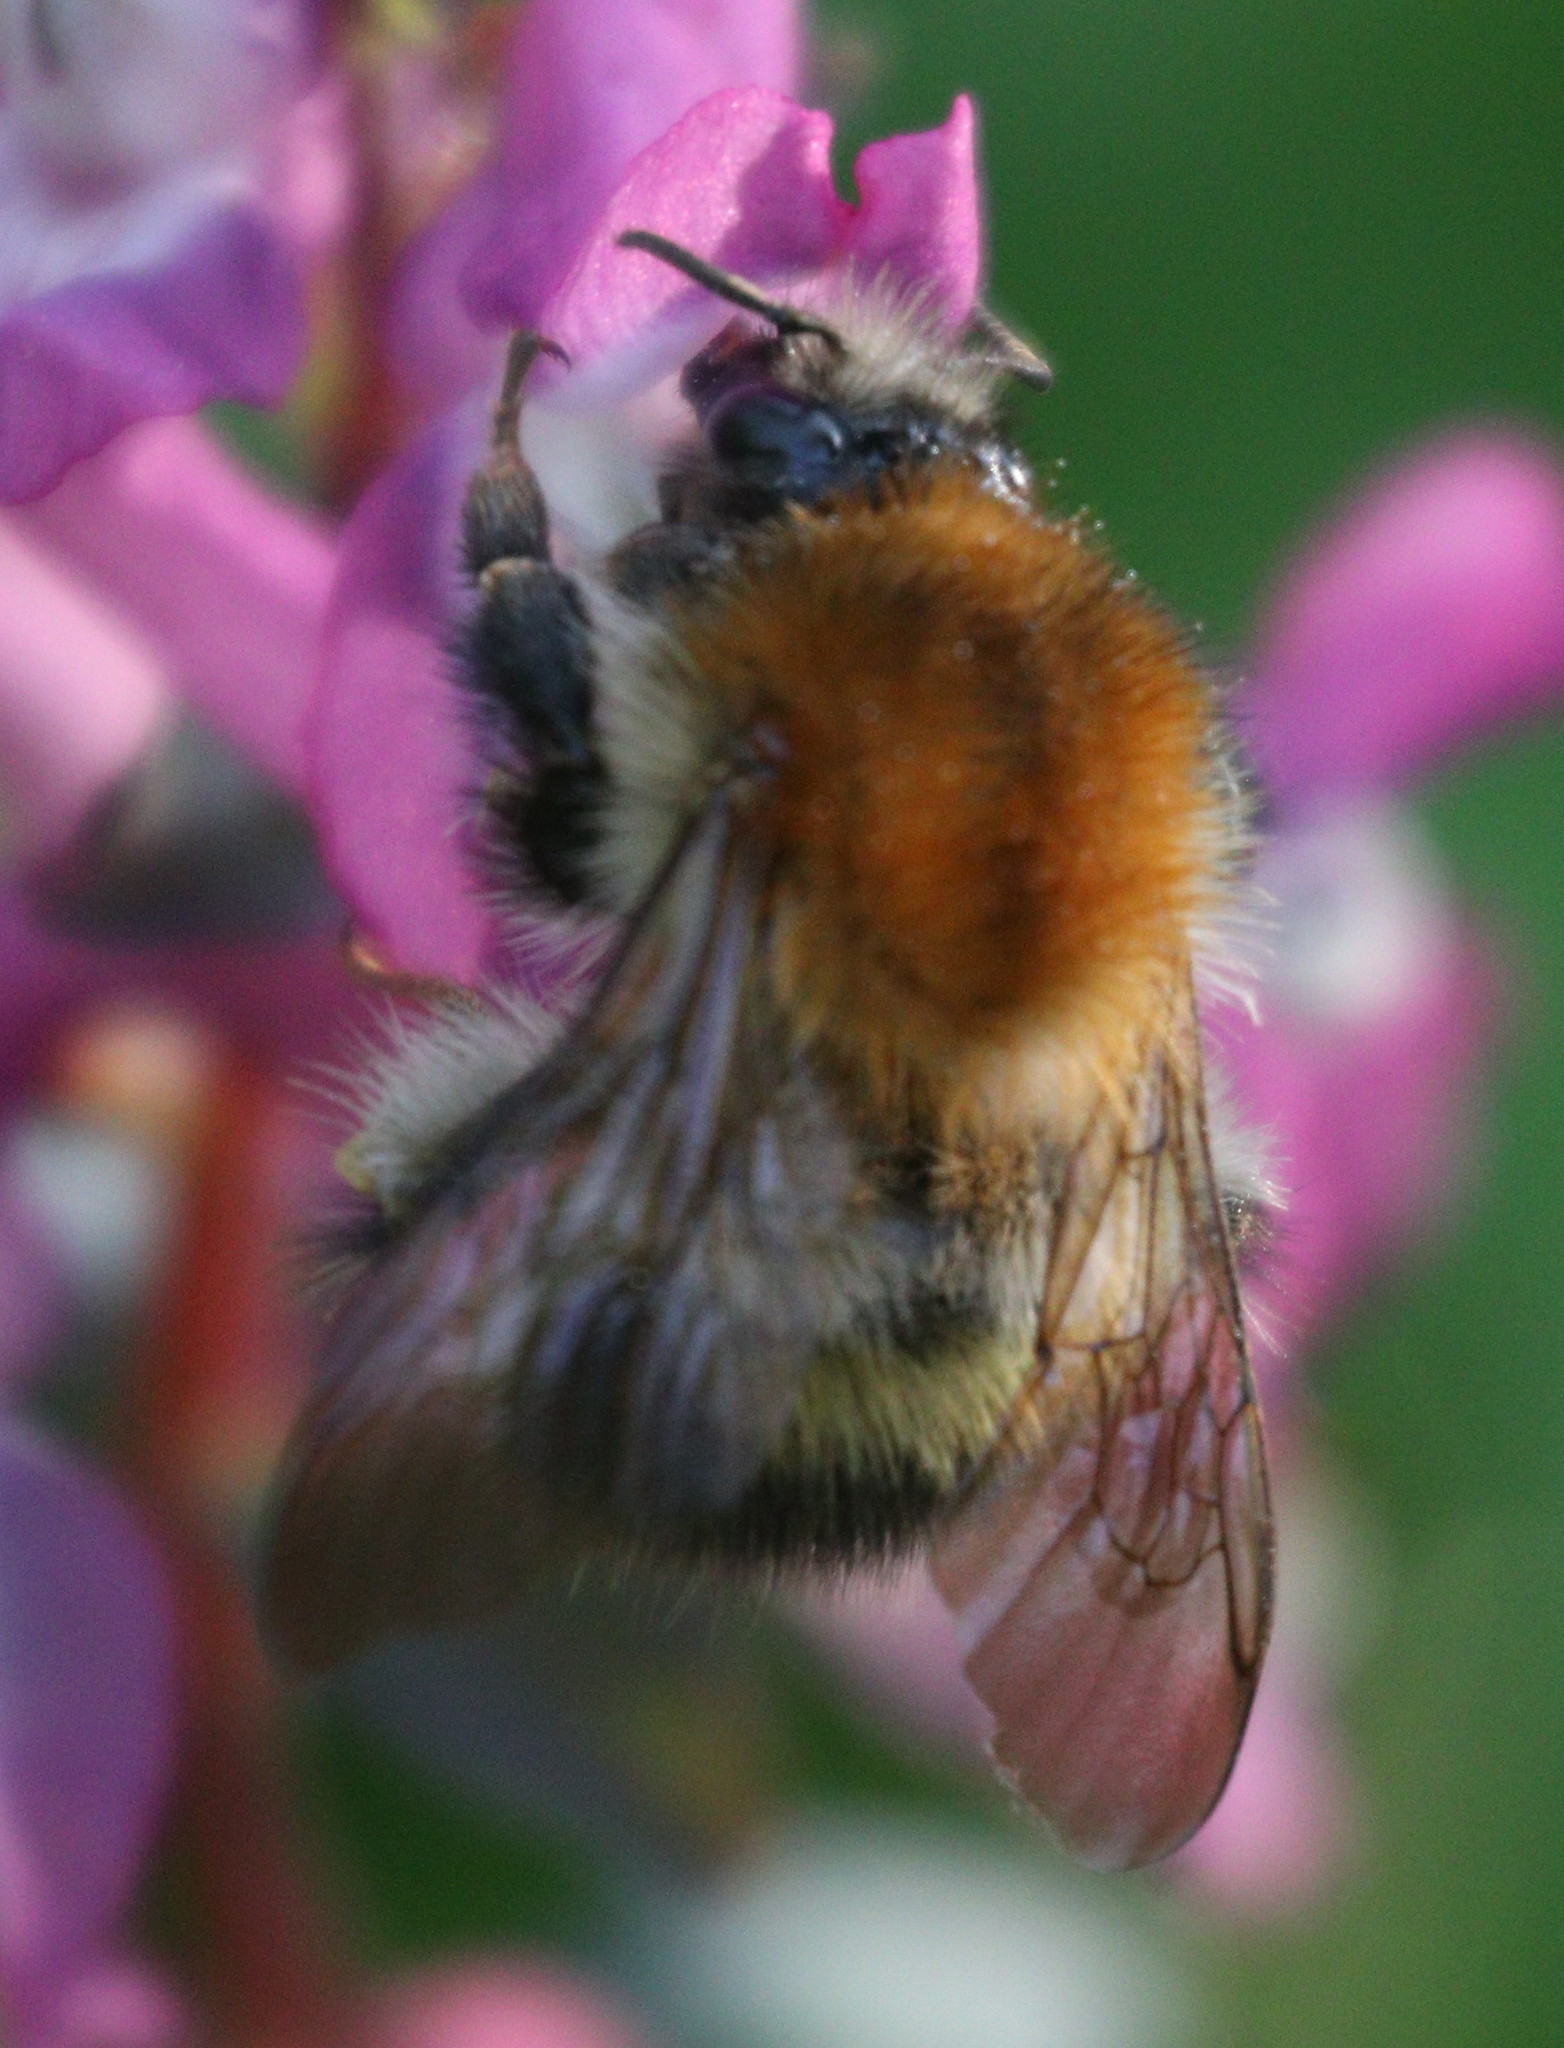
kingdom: Animalia
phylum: Arthropoda
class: Insecta
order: Hymenoptera
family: Apidae
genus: Bombus
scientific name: Bombus pascuorum
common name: Common carder bee
